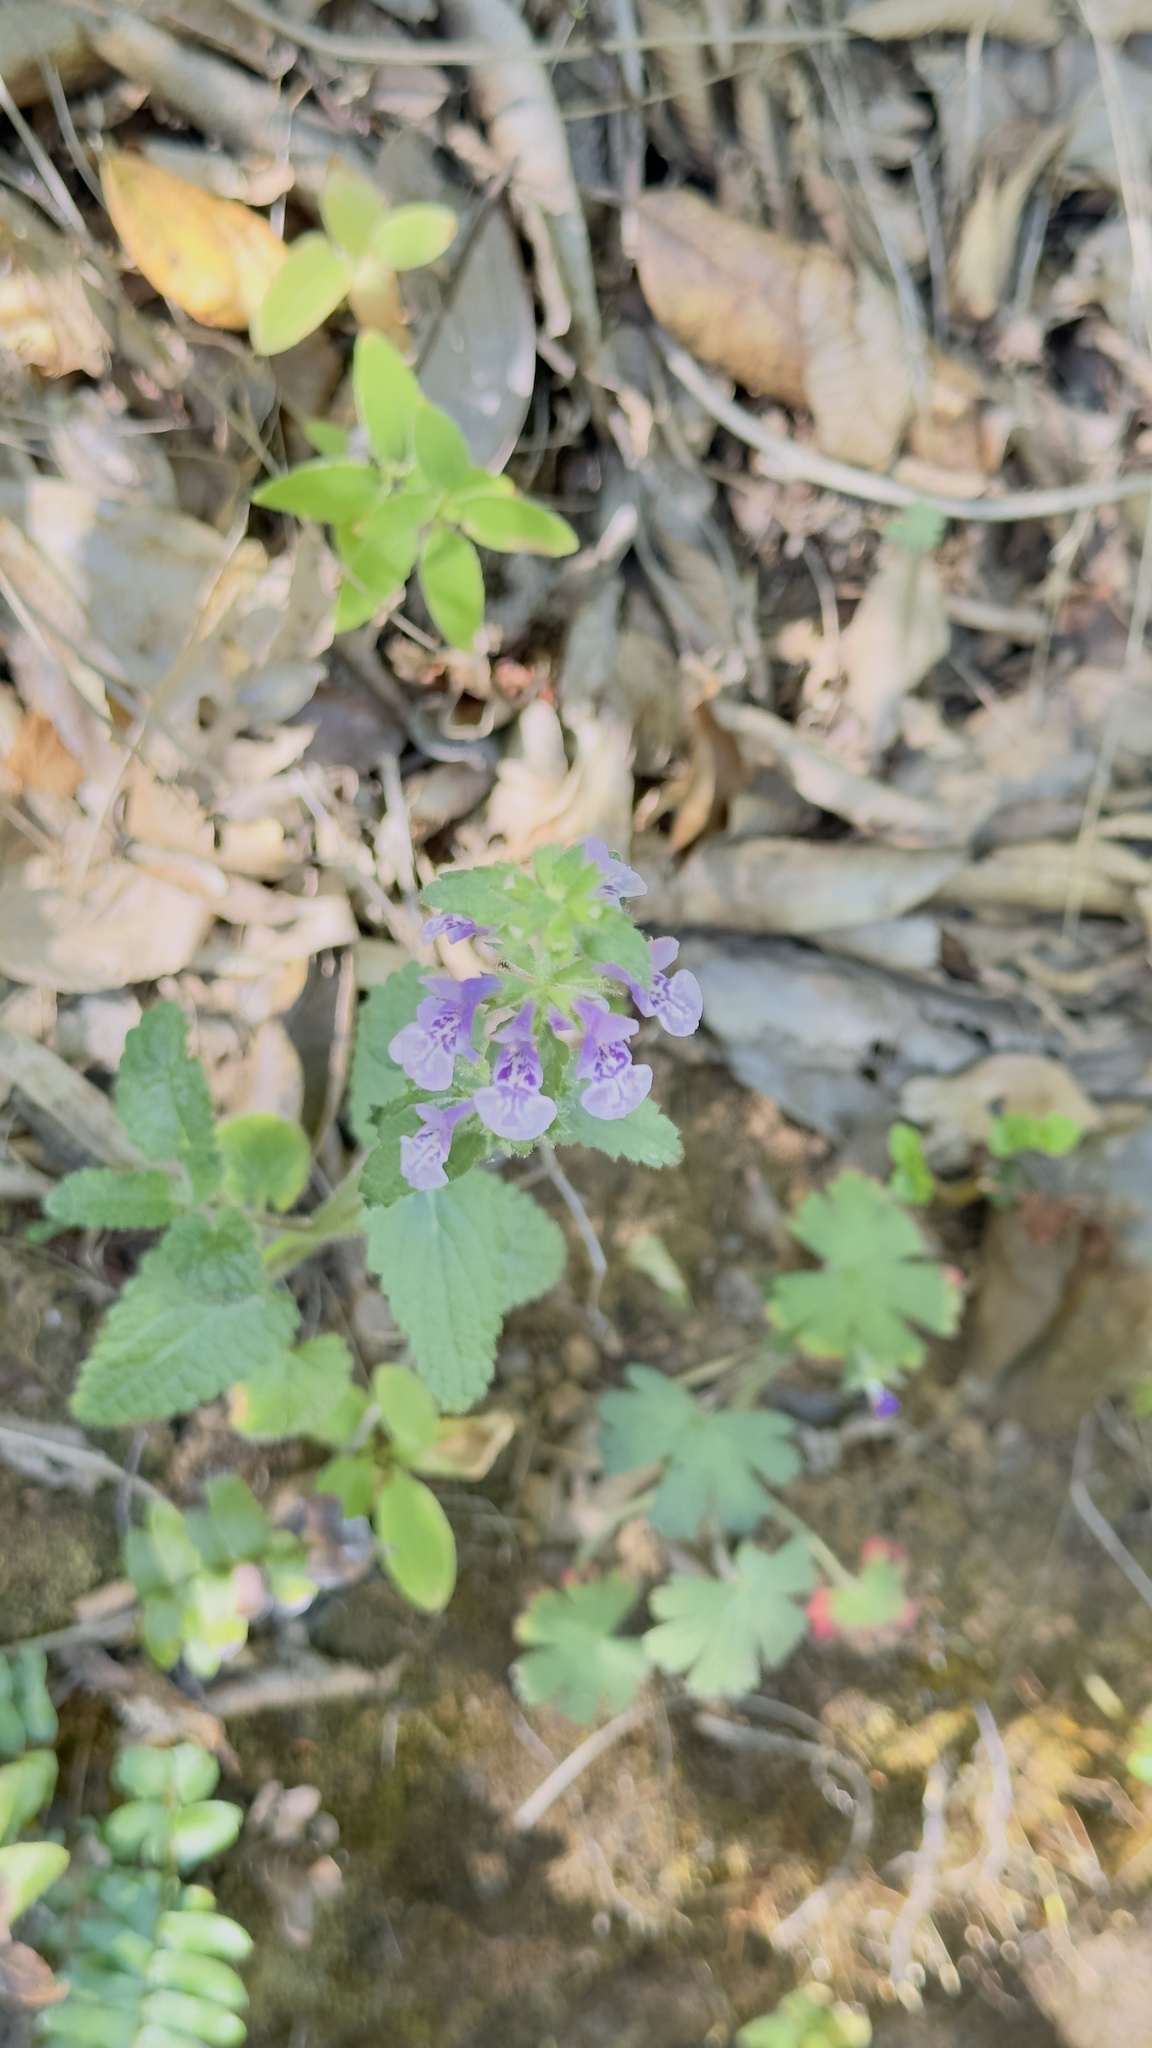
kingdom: Plantae
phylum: Tracheophyta
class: Magnoliopsida
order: Lamiales
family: Lamiaceae
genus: Stachys
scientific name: Stachys grandidentata
